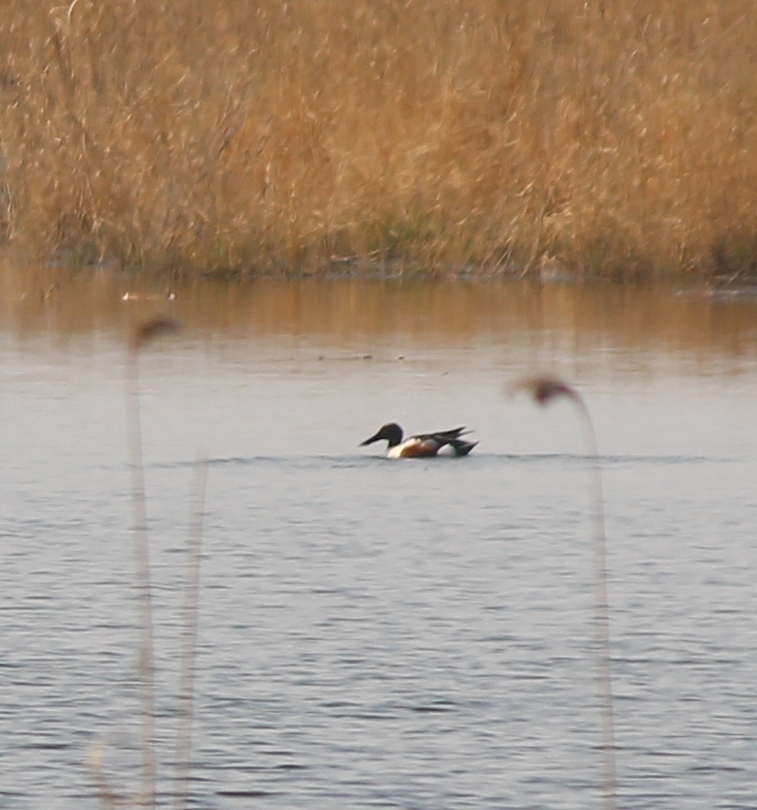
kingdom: Animalia
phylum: Chordata
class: Aves
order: Anseriformes
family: Anatidae
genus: Spatula
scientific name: Spatula clypeata
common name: Northern shoveler
